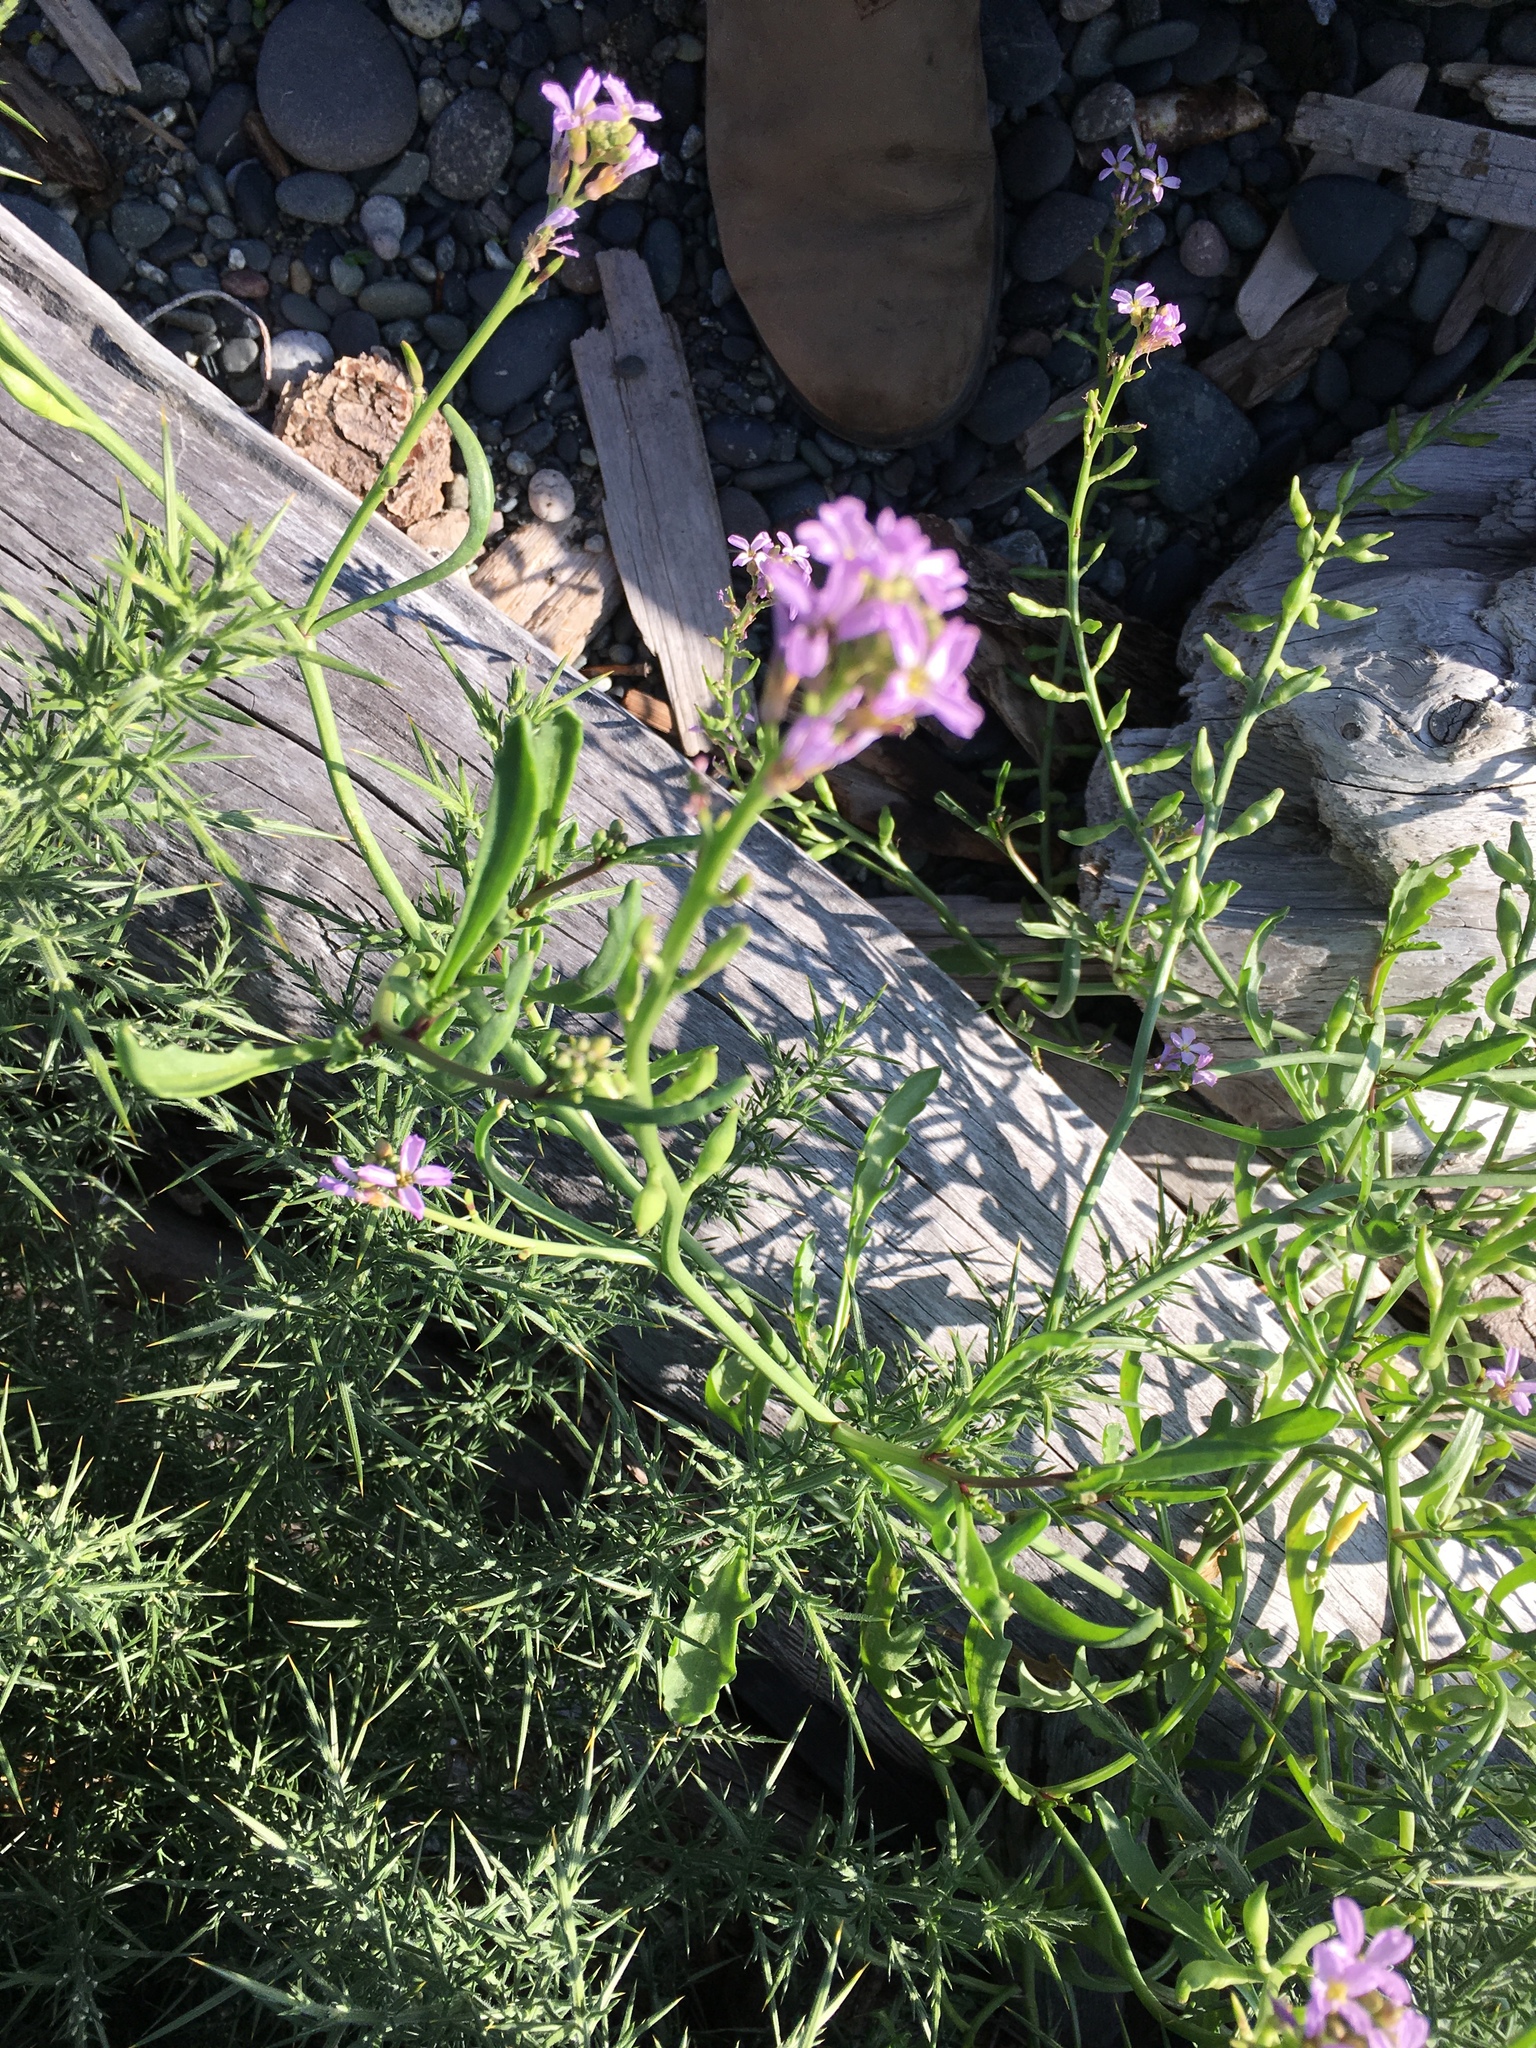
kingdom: Plantae
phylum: Tracheophyta
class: Magnoliopsida
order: Brassicales
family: Brassicaceae
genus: Cakile
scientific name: Cakile maritima
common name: Sea rocket
